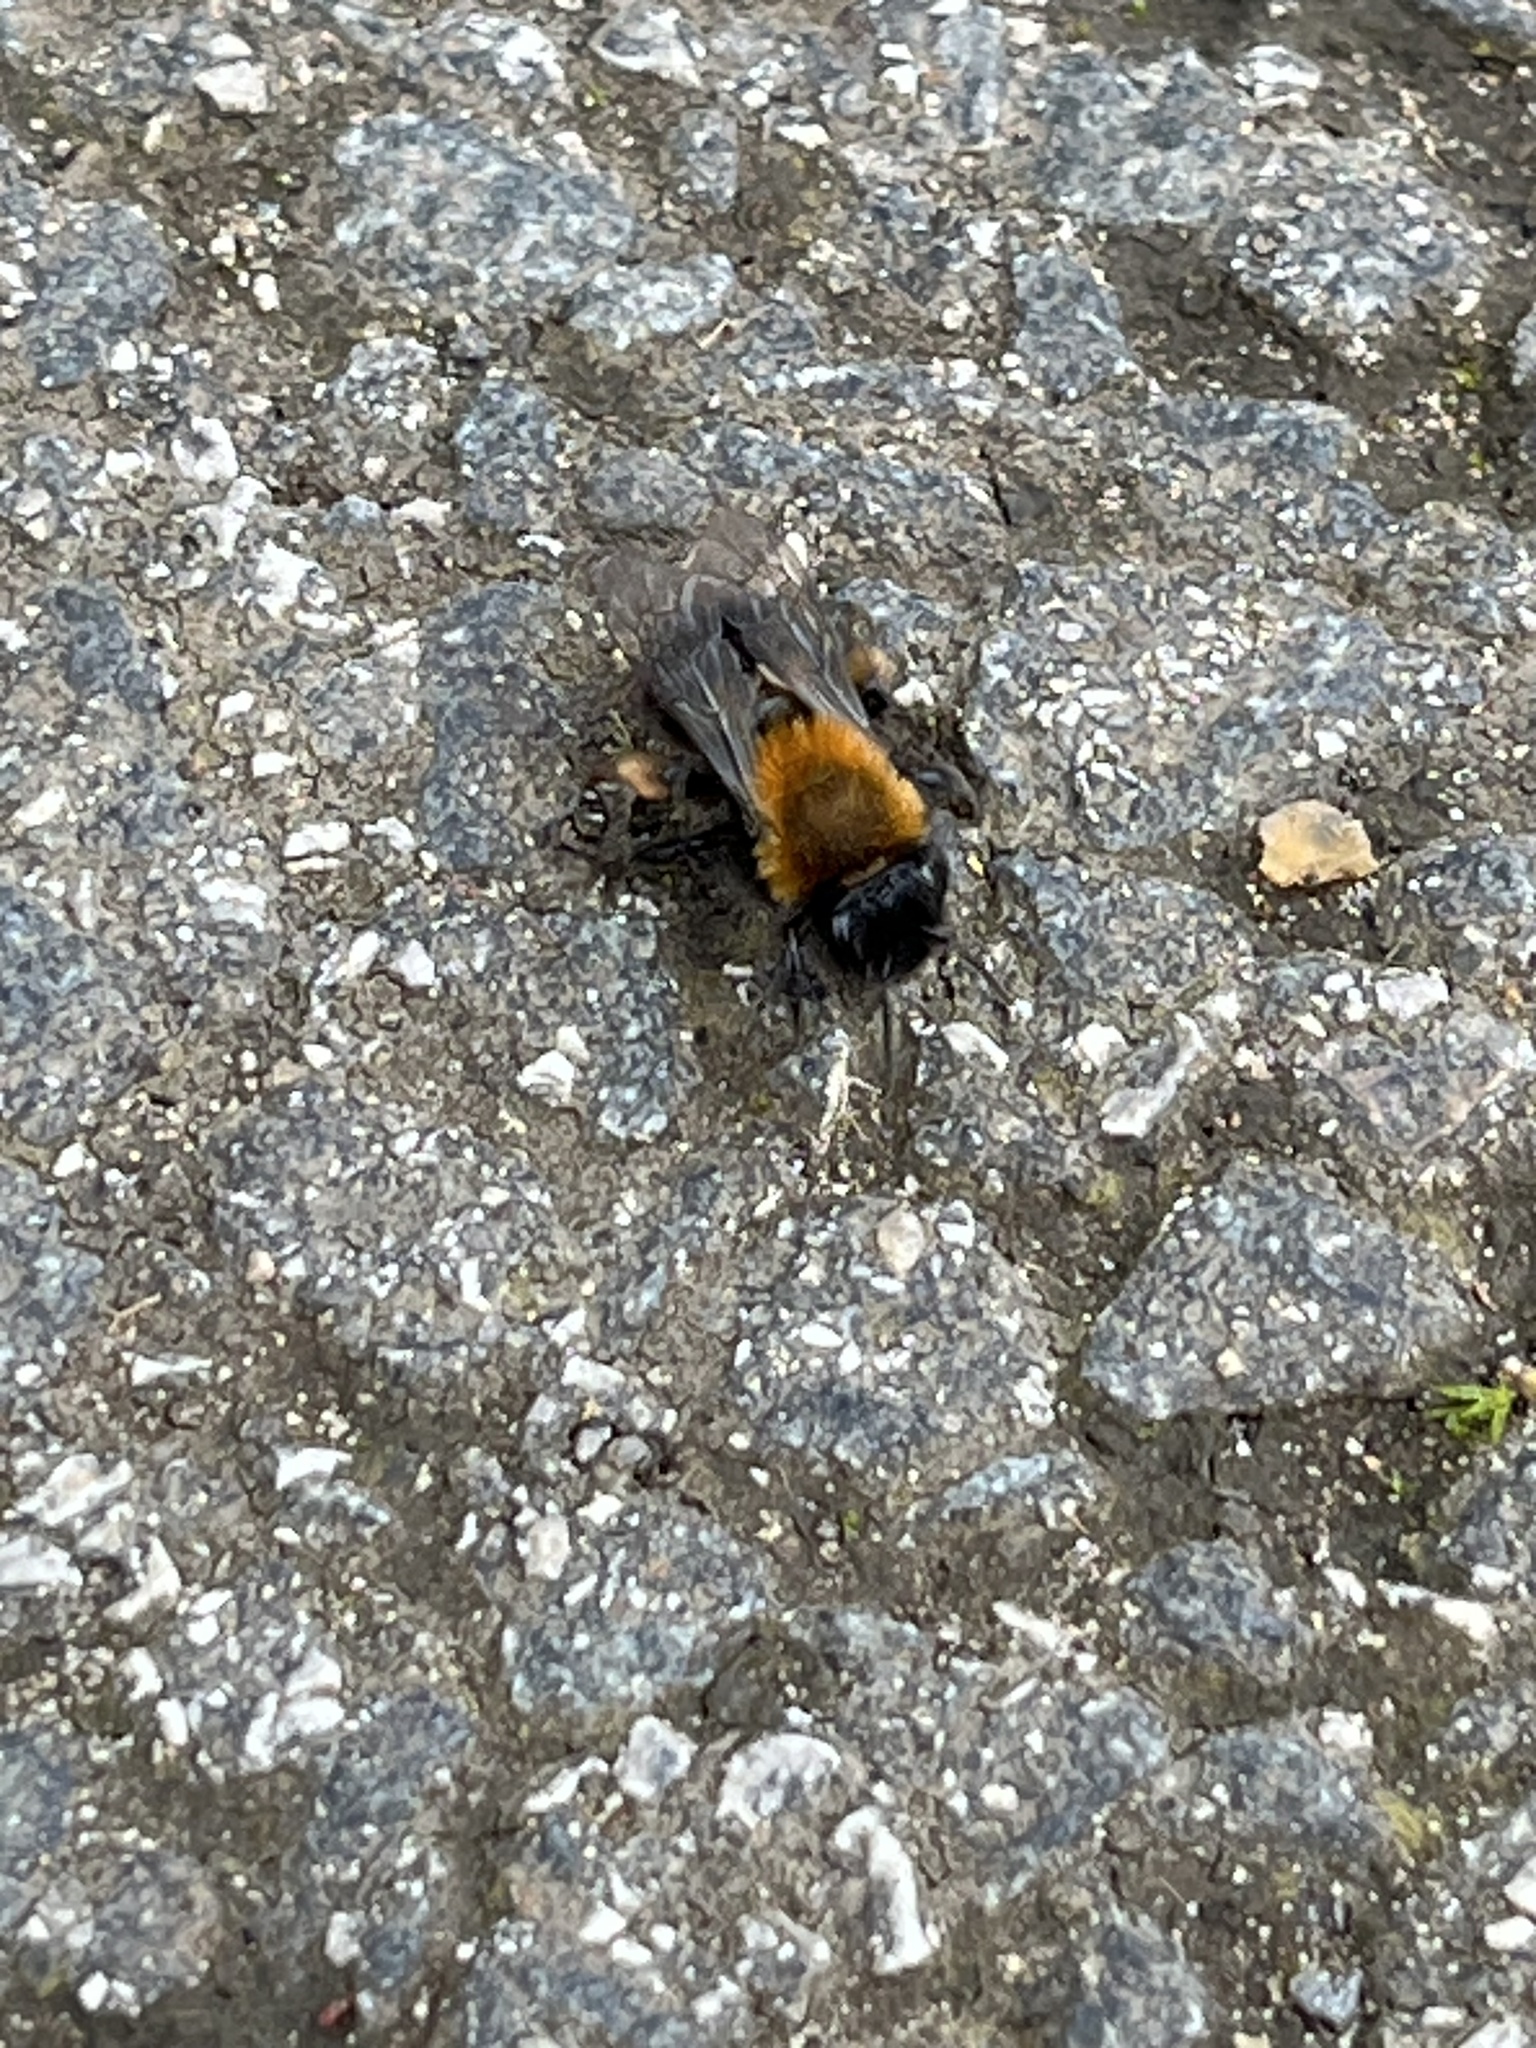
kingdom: Animalia
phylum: Arthropoda
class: Insecta
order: Hymenoptera
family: Andrenidae
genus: Andrena
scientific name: Andrena clarkella
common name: Clarke's mining bee
